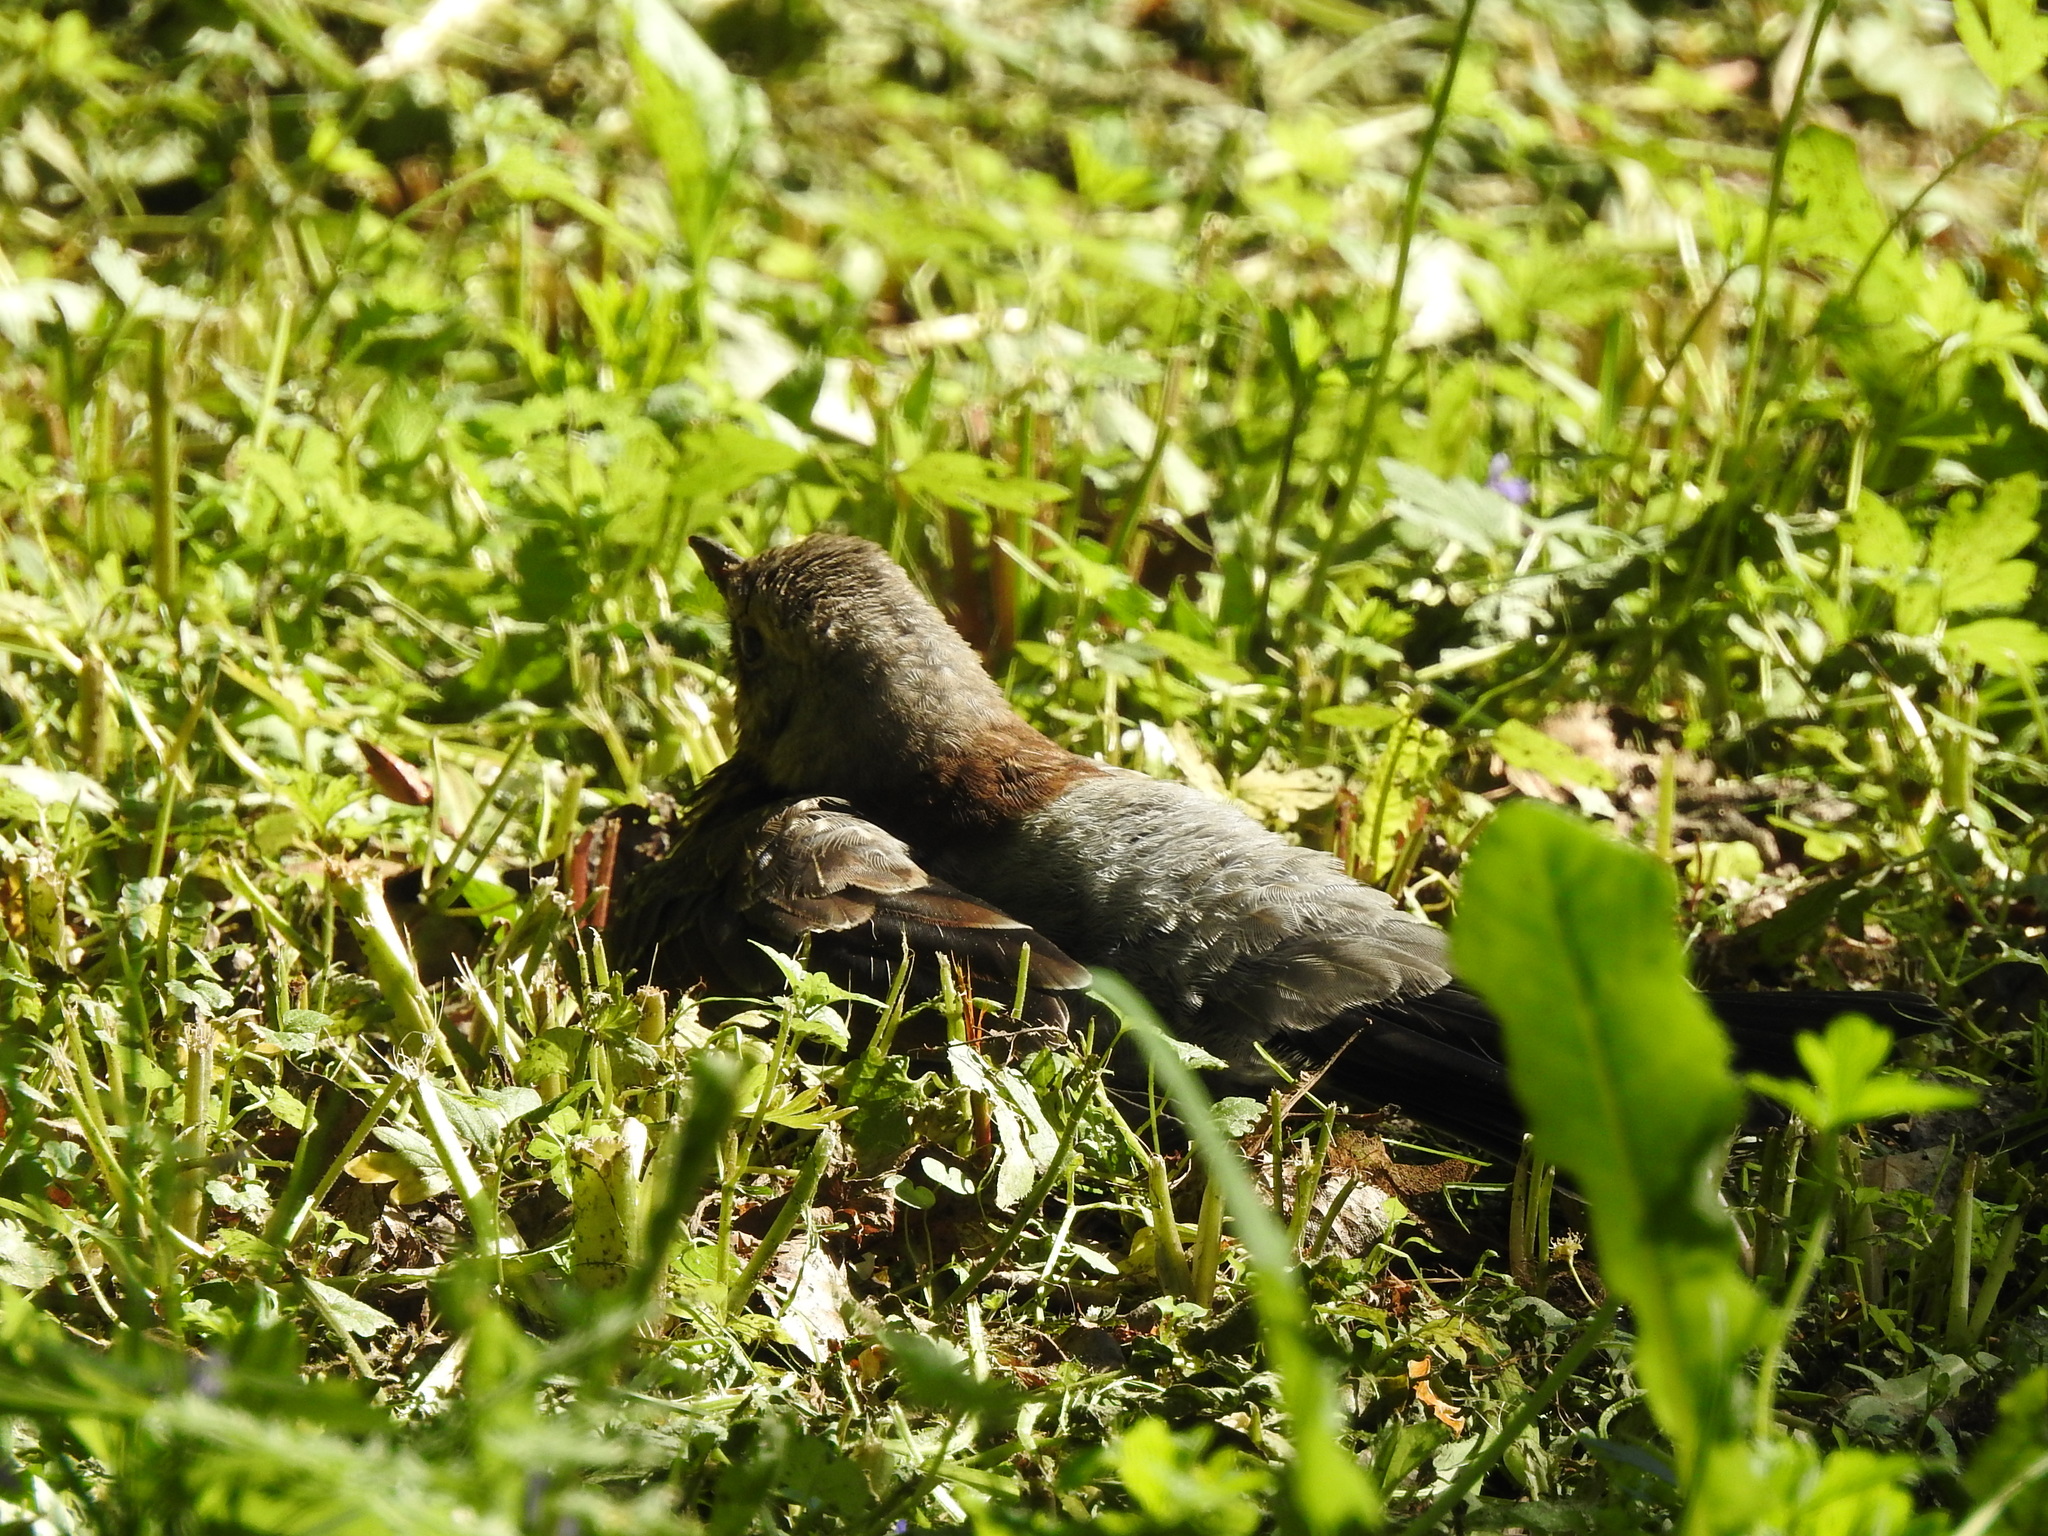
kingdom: Animalia
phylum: Chordata
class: Aves
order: Passeriformes
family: Turdidae
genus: Turdus
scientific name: Turdus pilaris
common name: Fieldfare
